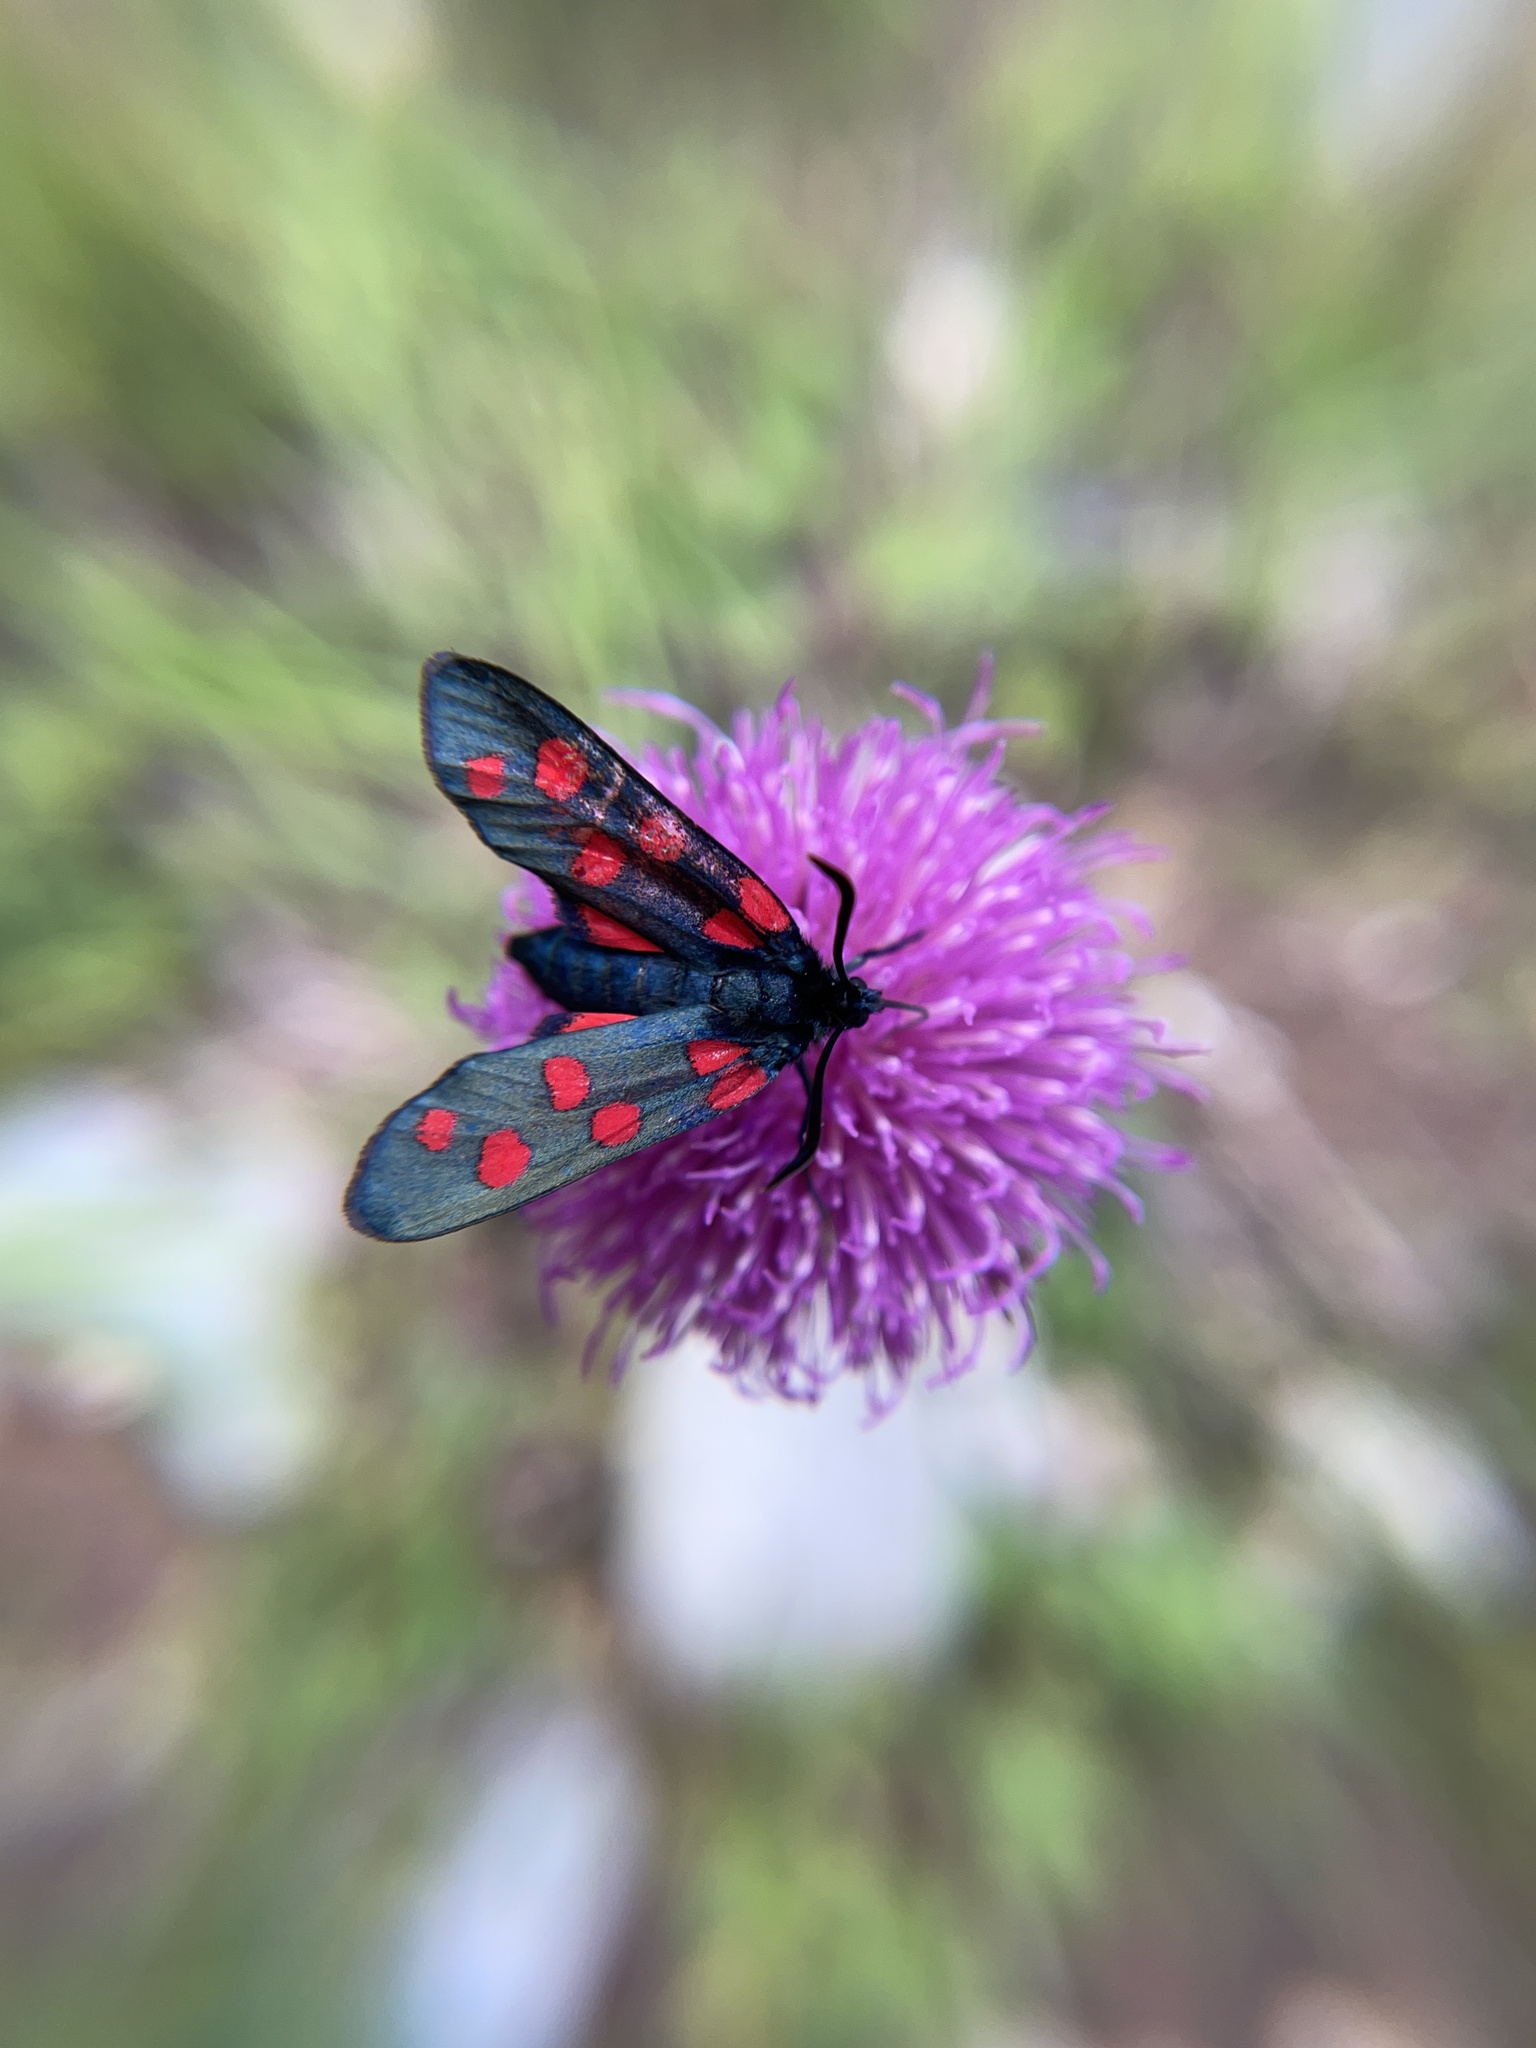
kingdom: Animalia
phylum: Arthropoda
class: Insecta
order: Lepidoptera
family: Zygaenidae
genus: Zygaena
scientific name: Zygaena transalpina
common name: Southern six spot burnet
